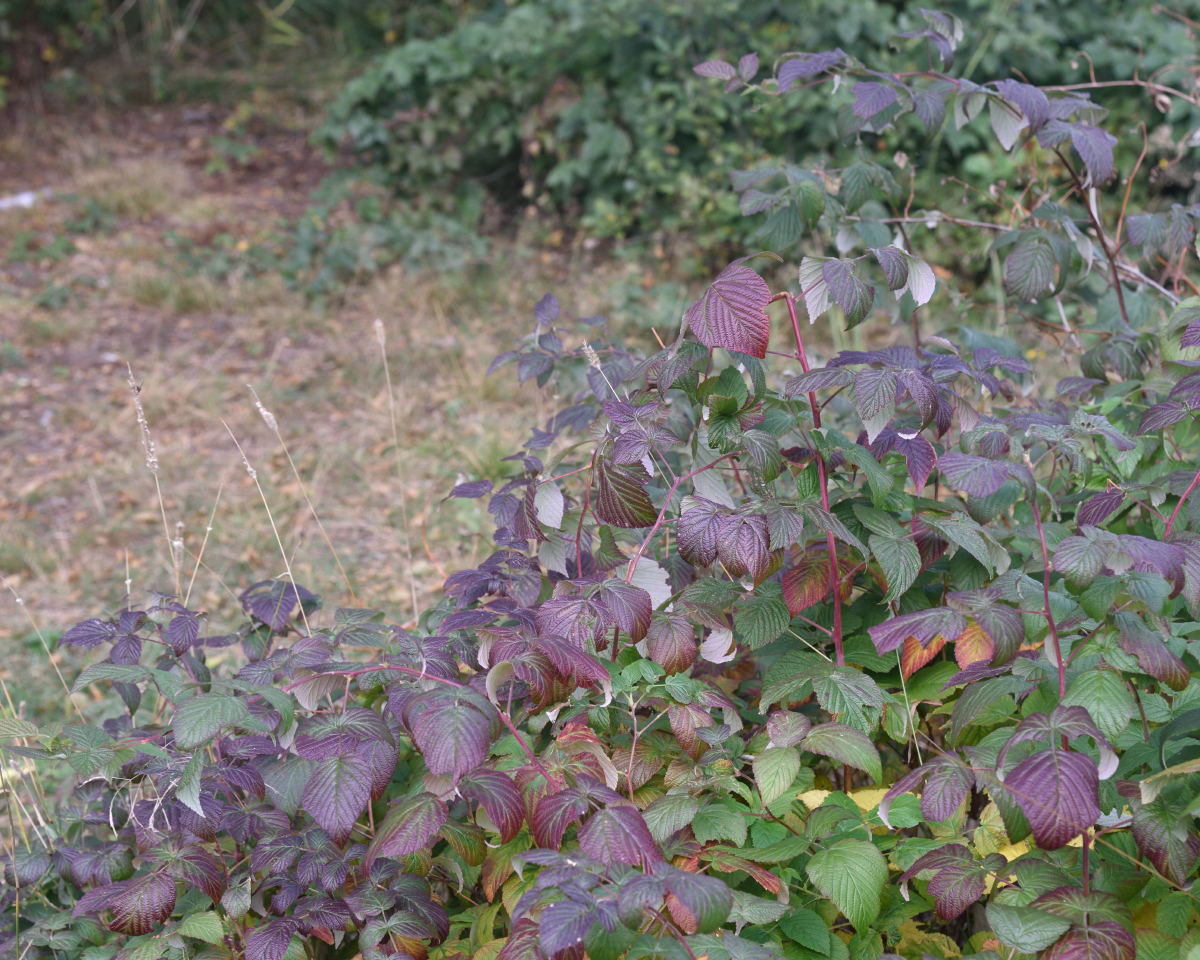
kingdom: Plantae
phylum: Tracheophyta
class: Magnoliopsida
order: Rosales
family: Rosaceae
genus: Rubus
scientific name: Rubus idaeus
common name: Raspberry
